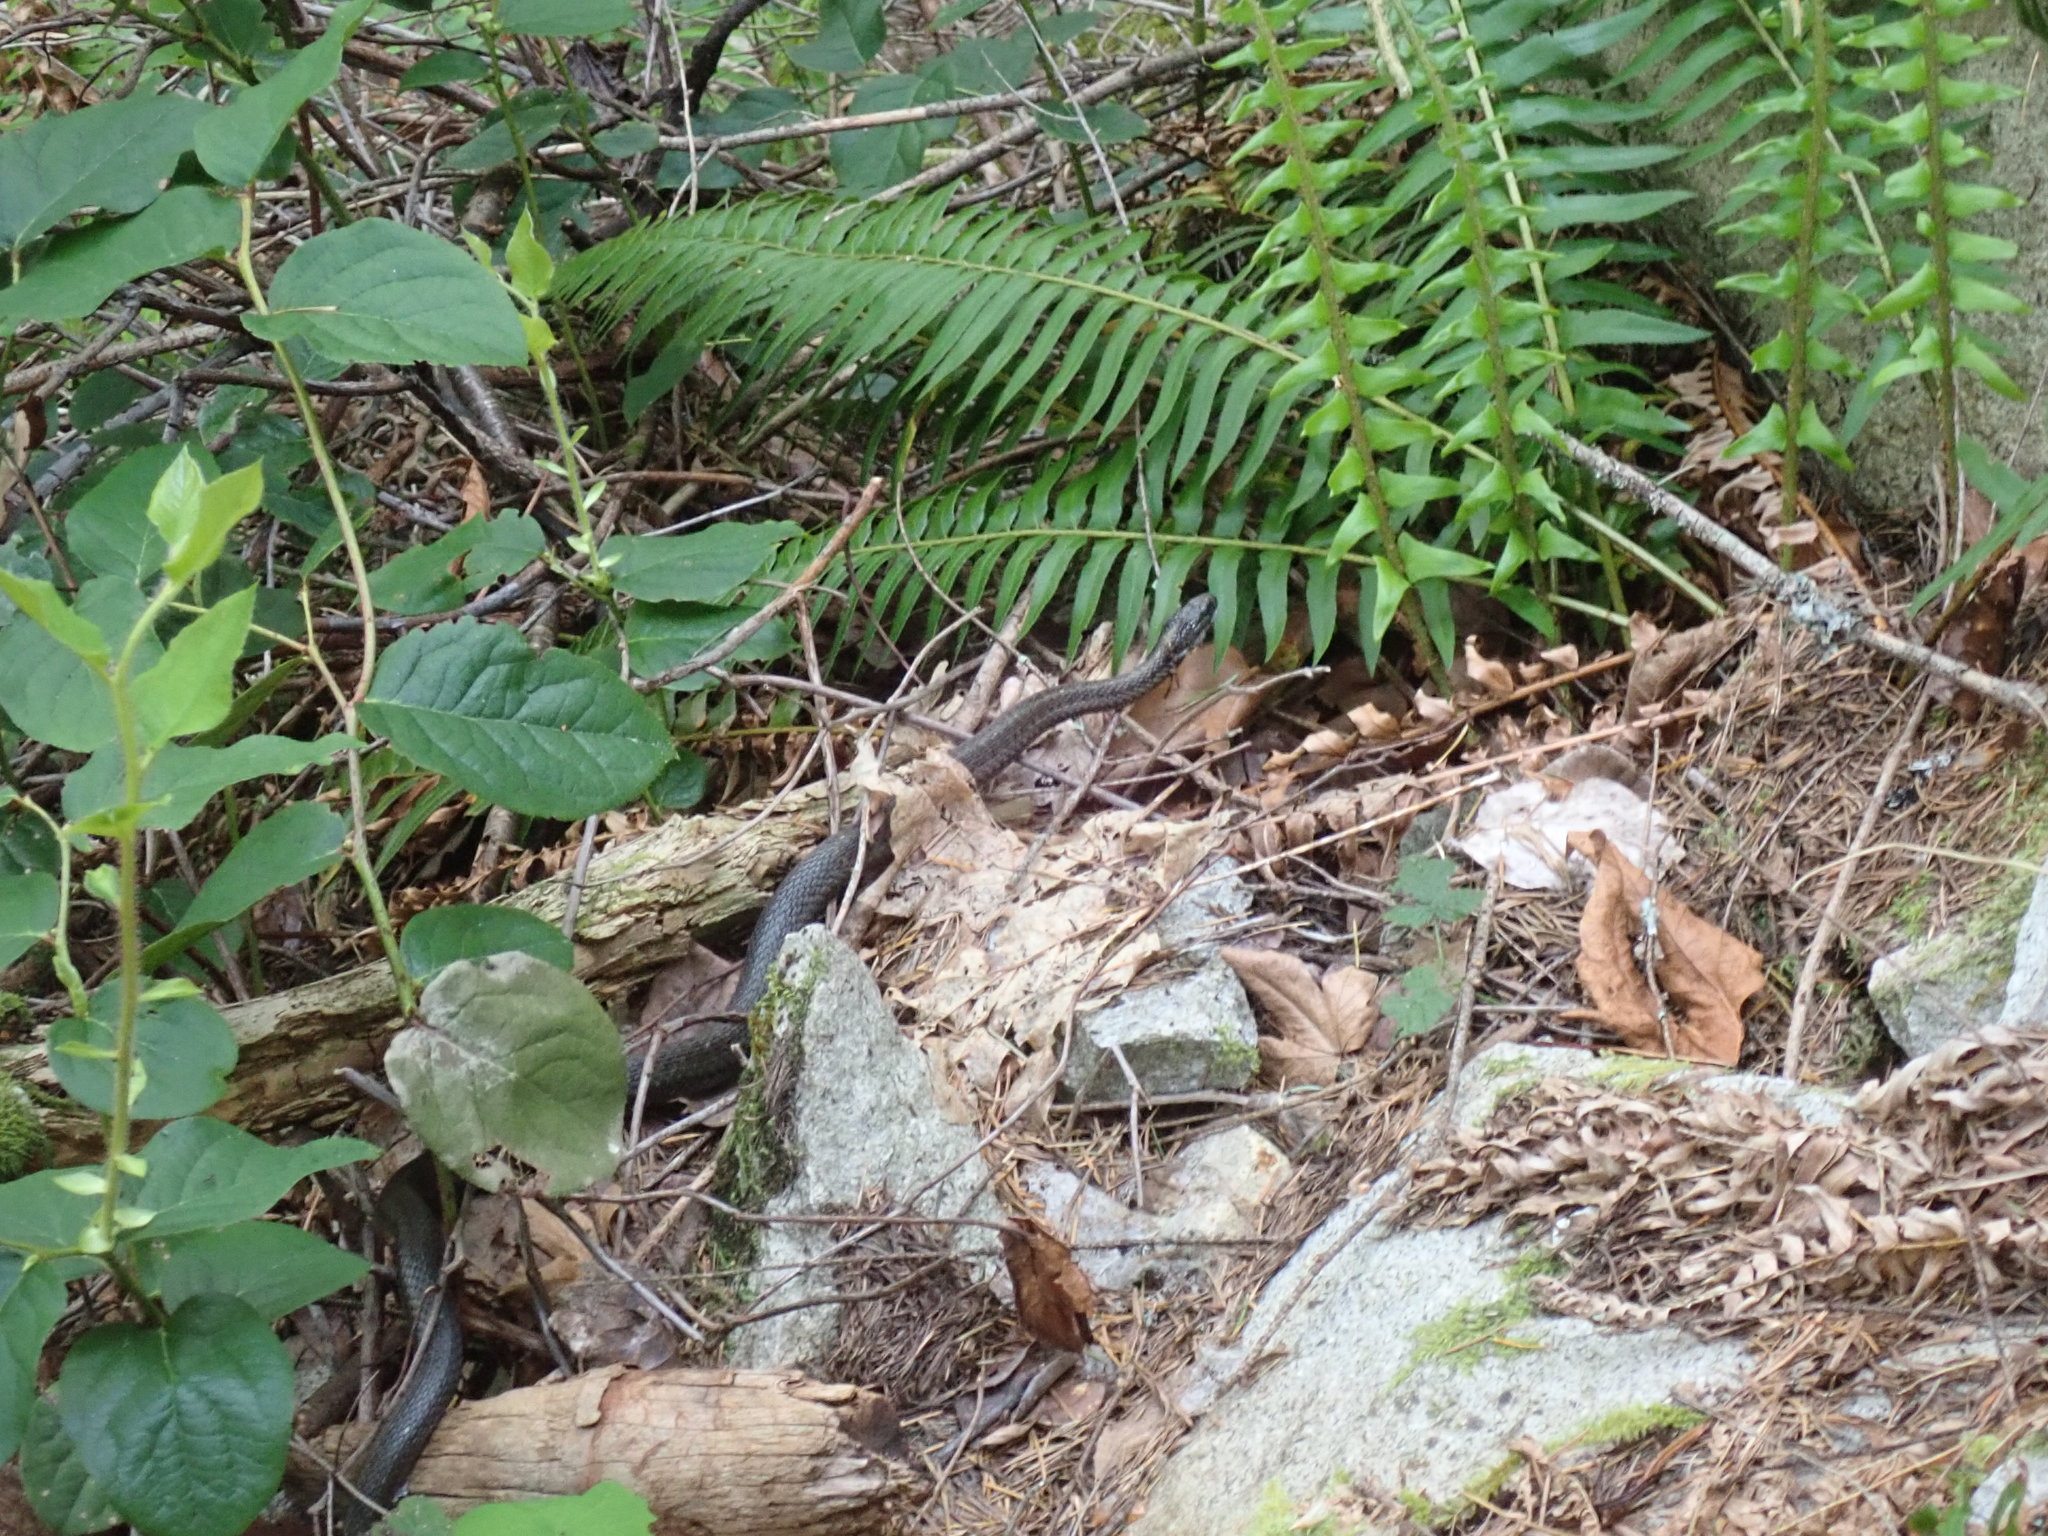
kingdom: Animalia
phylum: Chordata
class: Squamata
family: Colubridae
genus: Thamnophis
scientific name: Thamnophis elegans
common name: Western terrestrial garter snake
